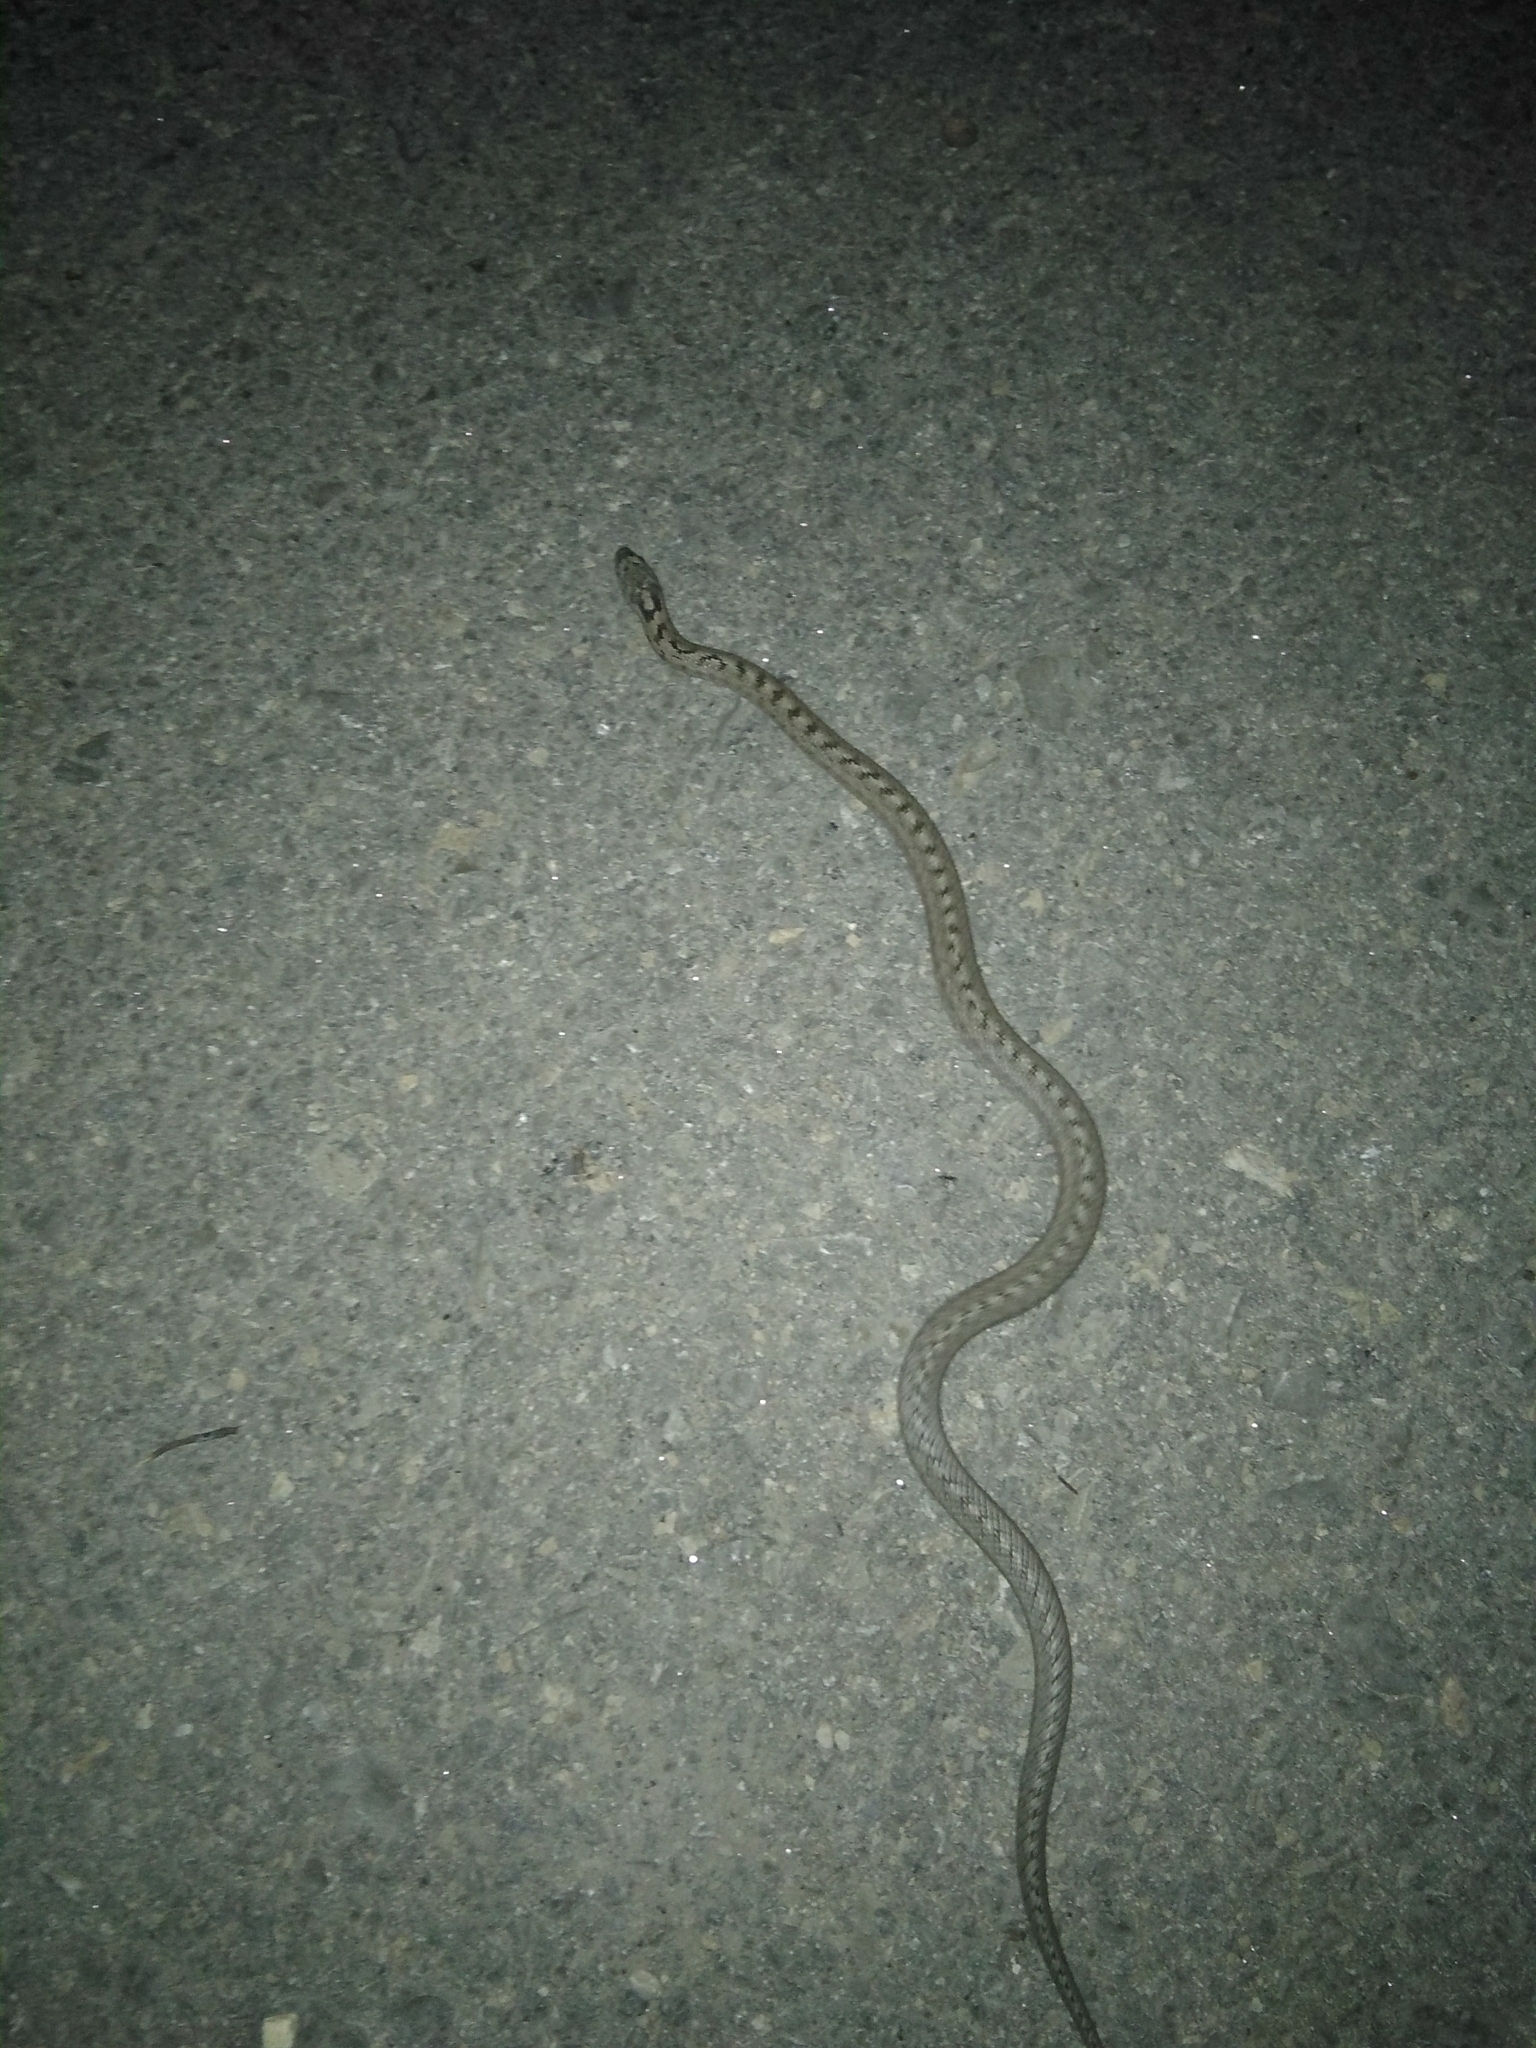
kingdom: Animalia
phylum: Chordata
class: Squamata
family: Colubridae
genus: Coronella
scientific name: Coronella girondica
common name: Southern smooth snake
